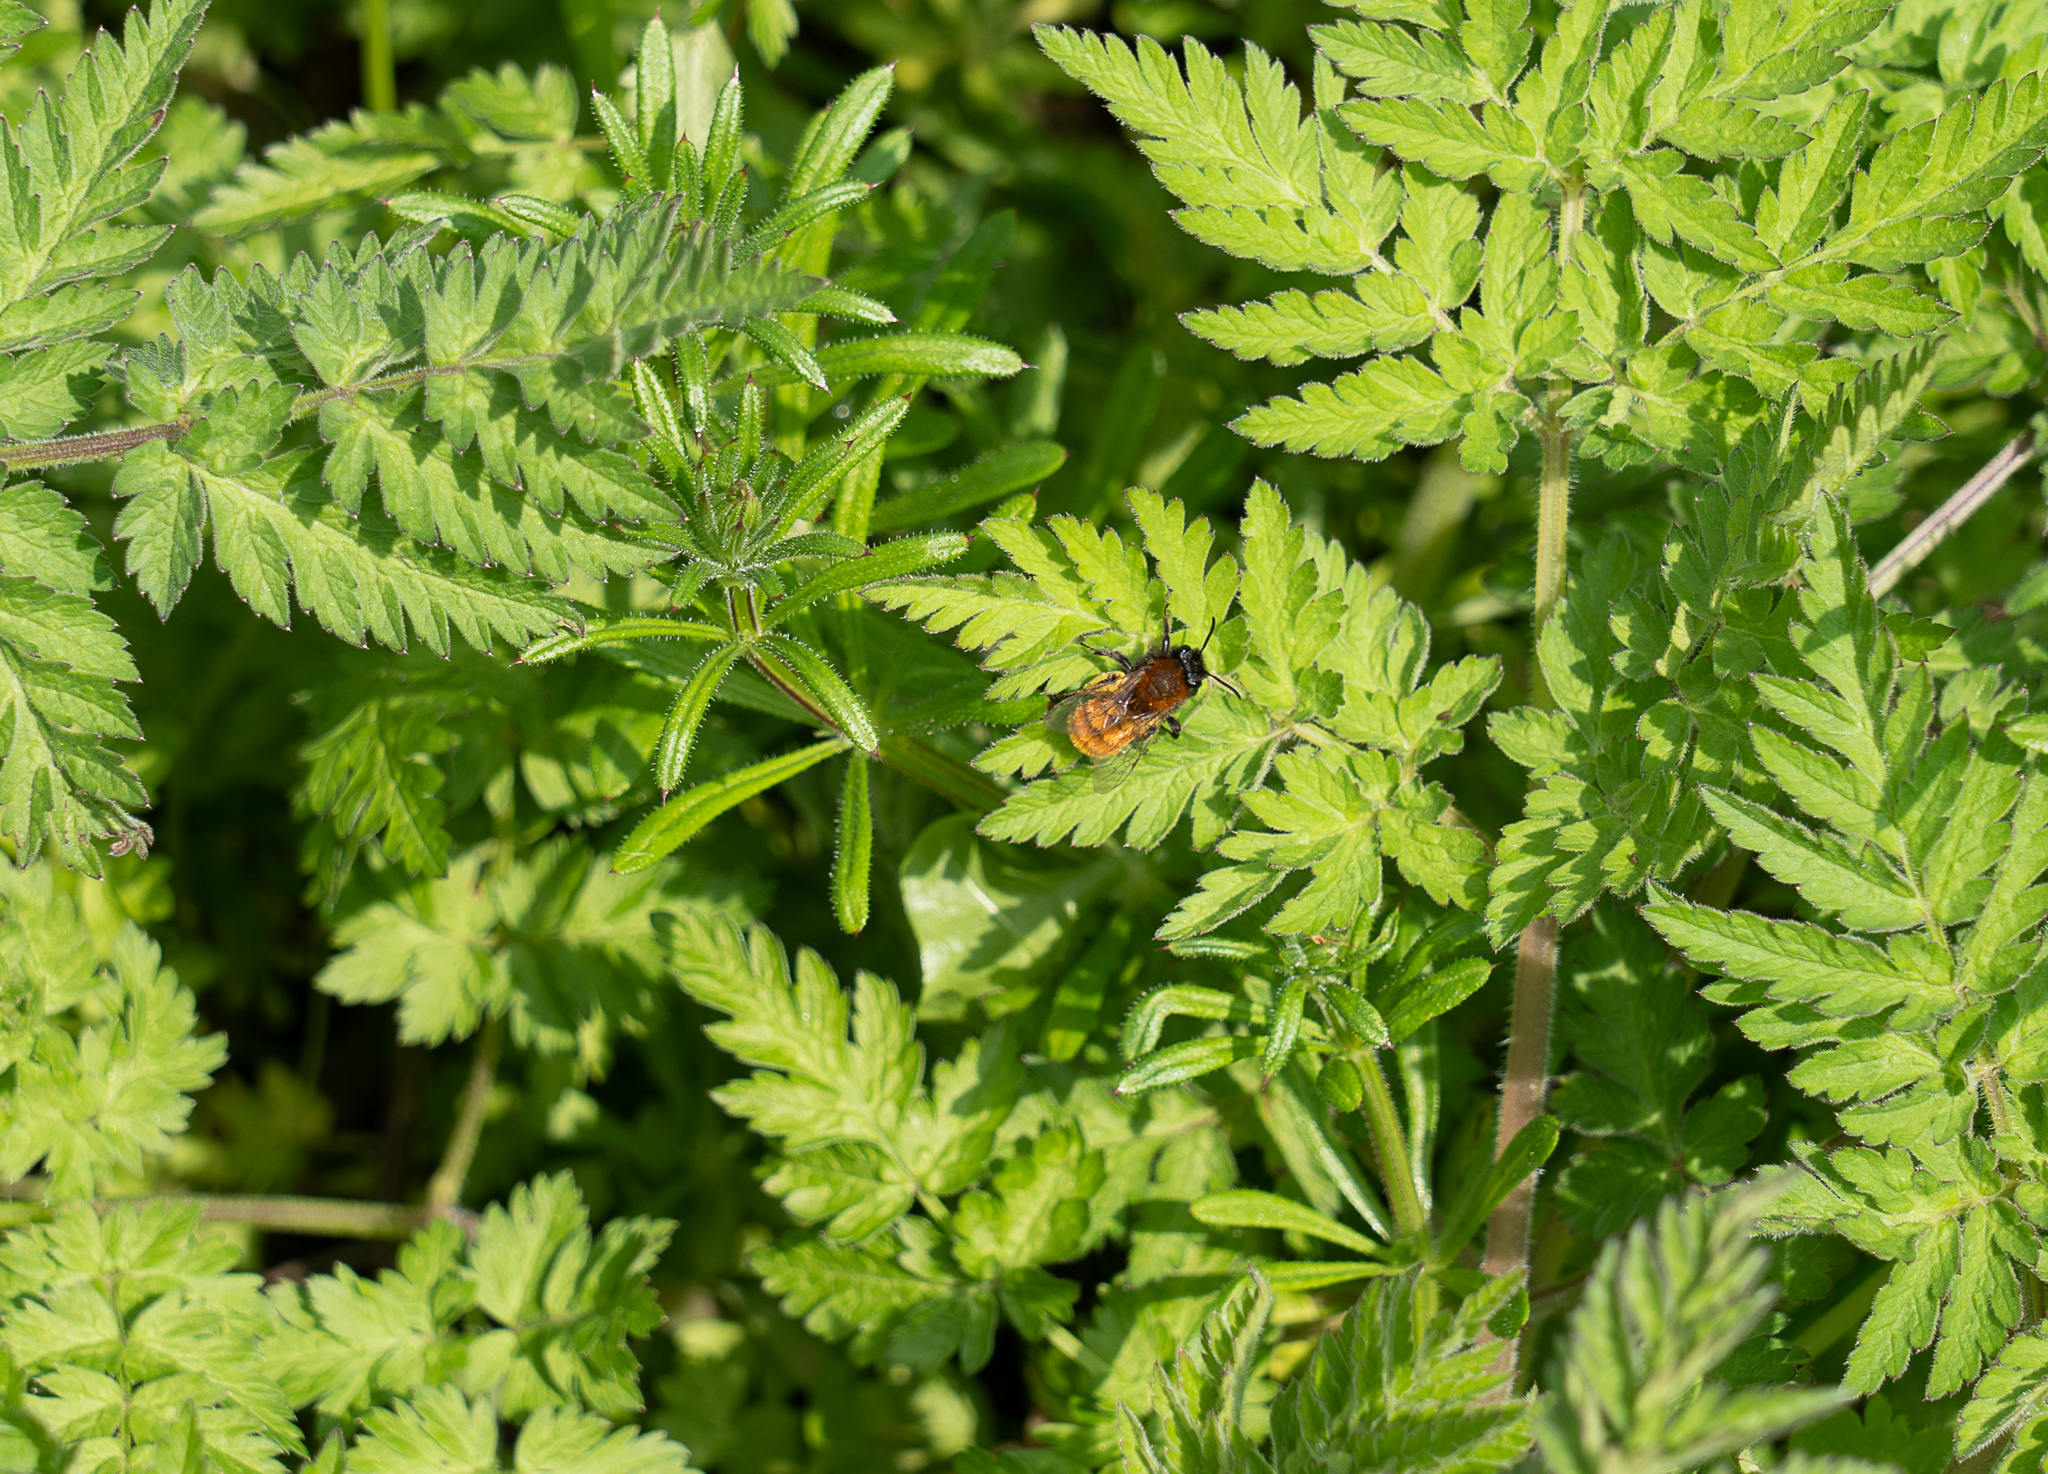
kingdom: Animalia
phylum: Arthropoda
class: Insecta
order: Hymenoptera
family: Andrenidae
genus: Andrena
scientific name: Andrena fulva
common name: Tawny mining bee
